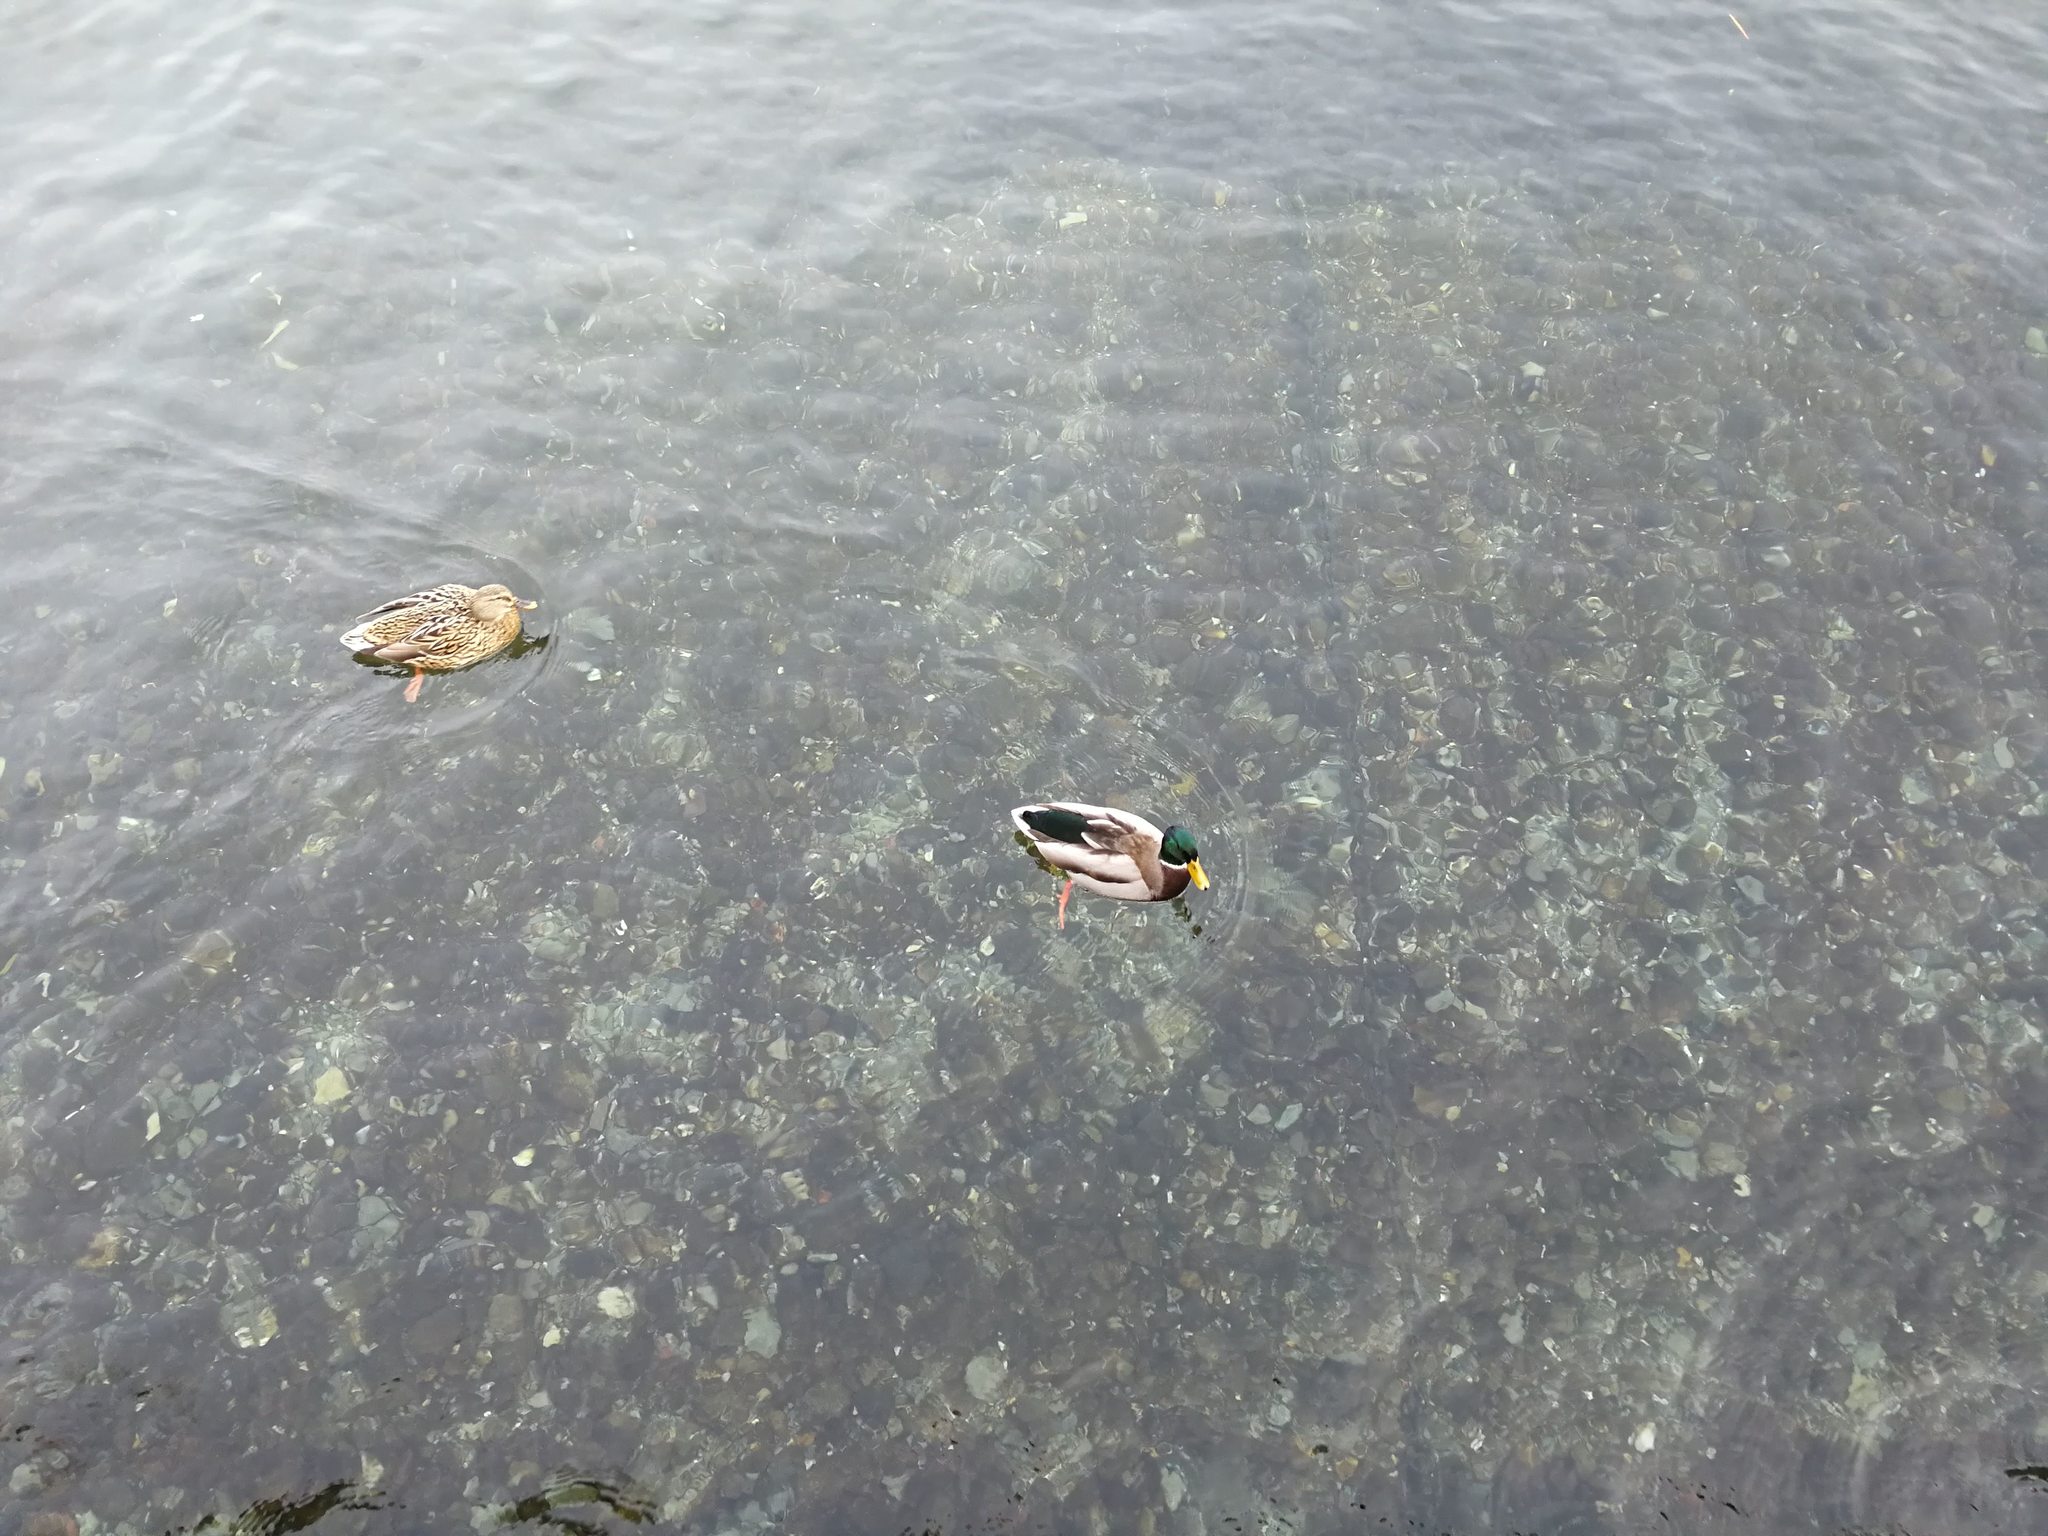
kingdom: Animalia
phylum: Chordata
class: Aves
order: Anseriformes
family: Anatidae
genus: Anas
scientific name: Anas platyrhynchos
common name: Mallard
